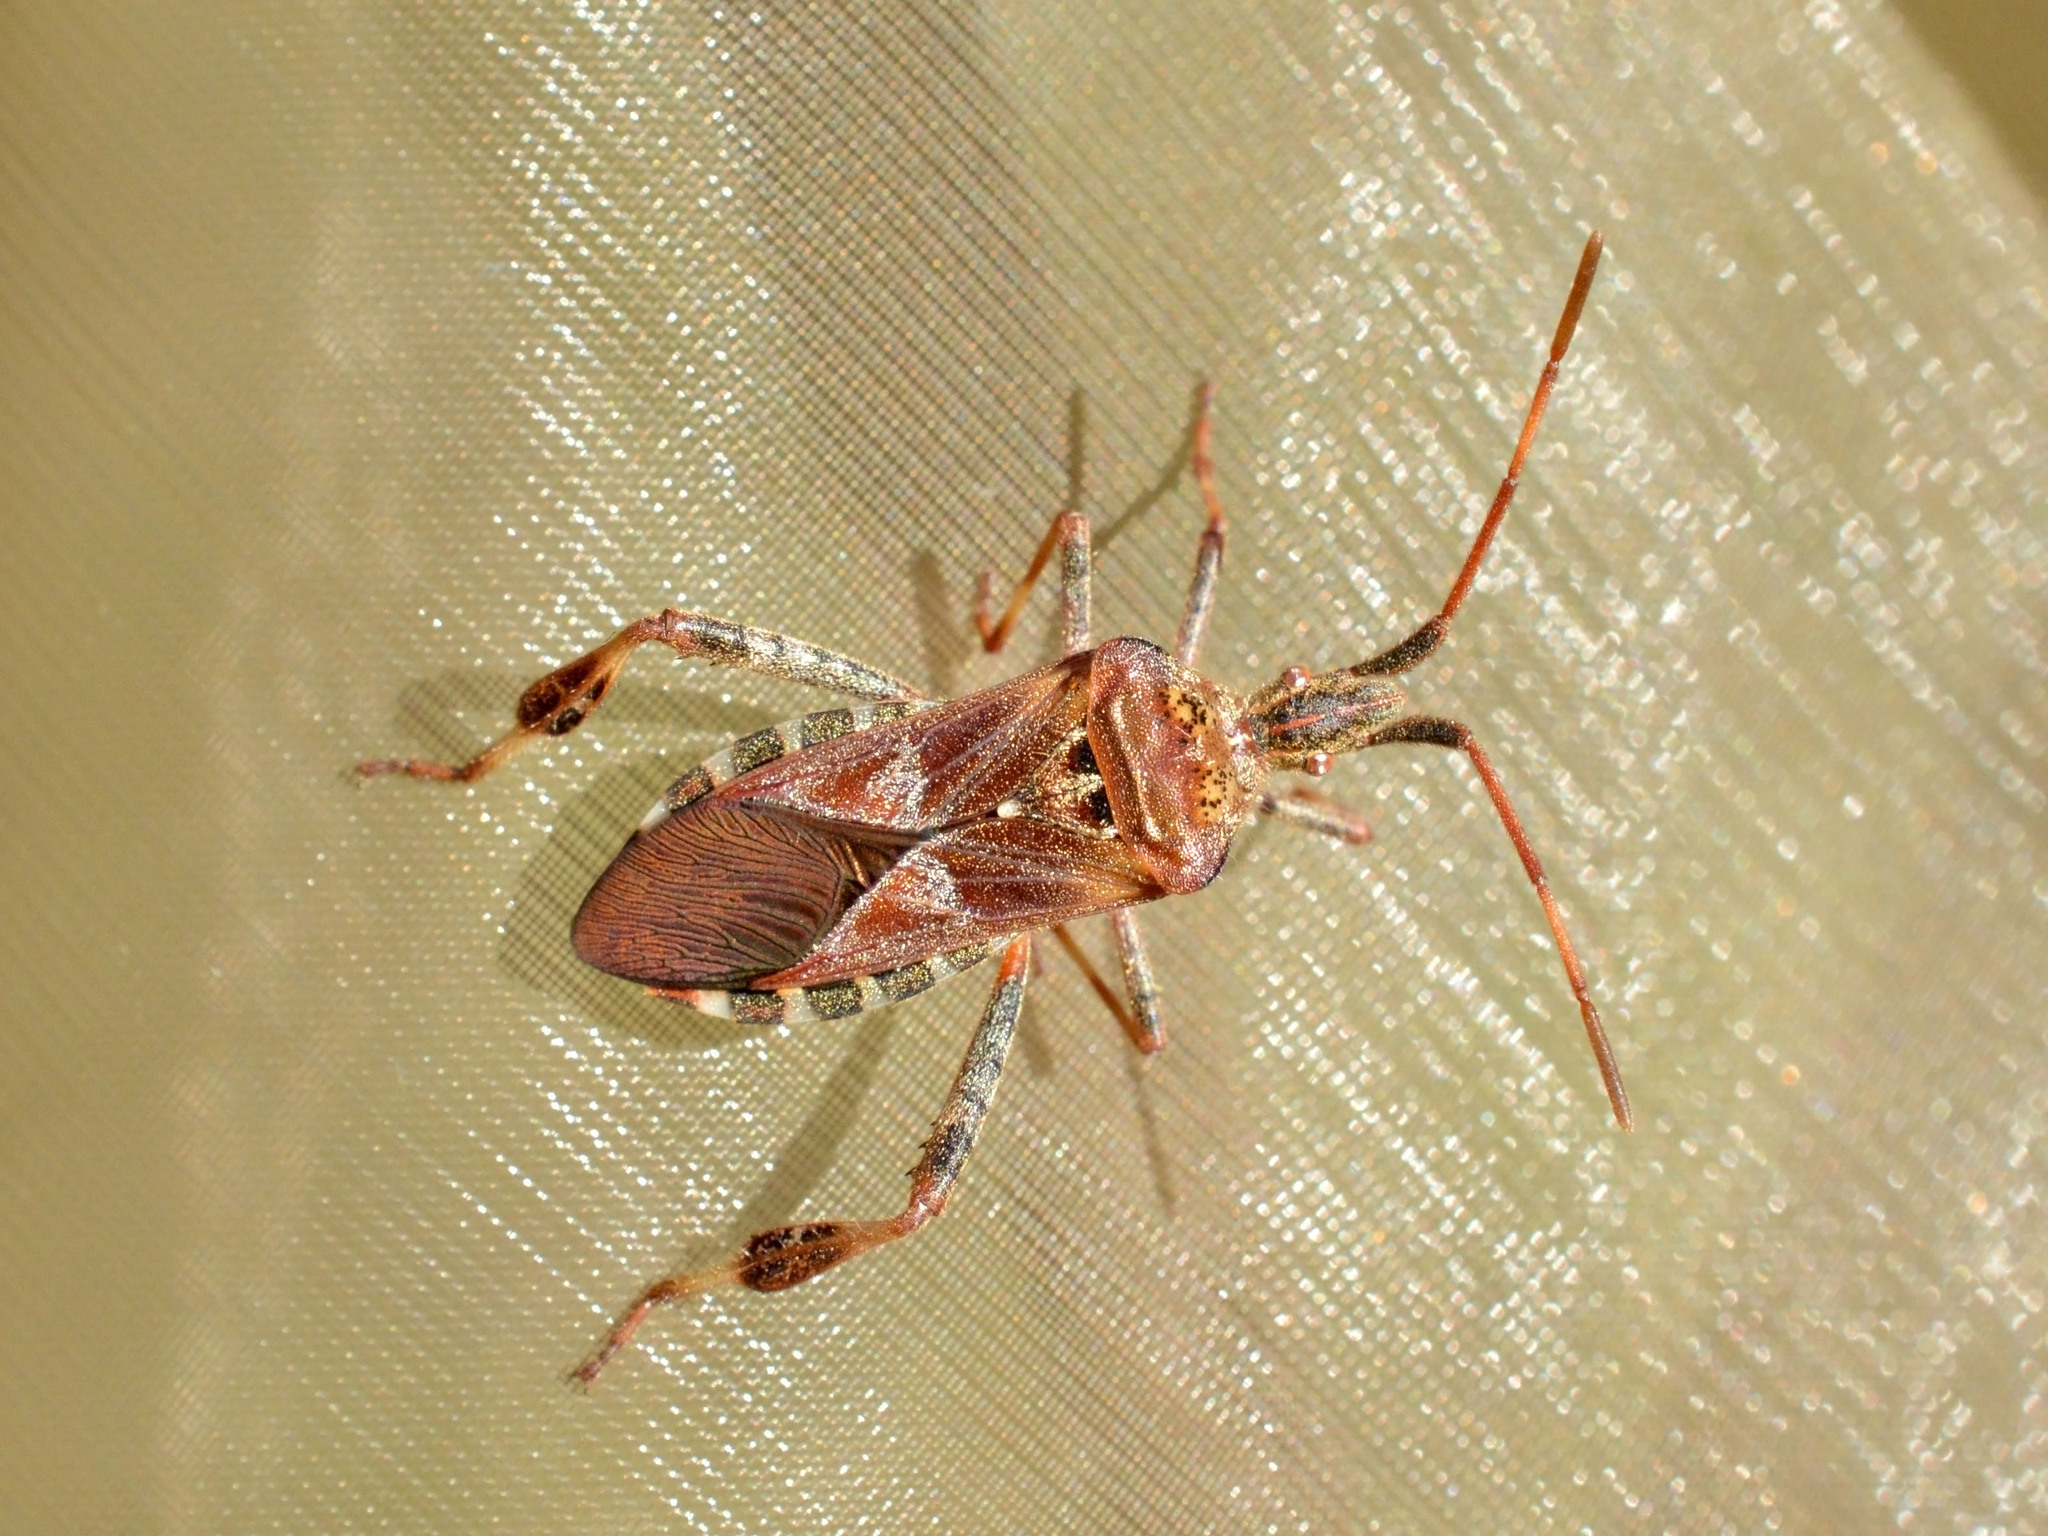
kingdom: Animalia
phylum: Arthropoda
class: Insecta
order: Hemiptera
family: Coreidae
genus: Leptoglossus
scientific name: Leptoglossus occidentalis
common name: Western conifer-seed bug
